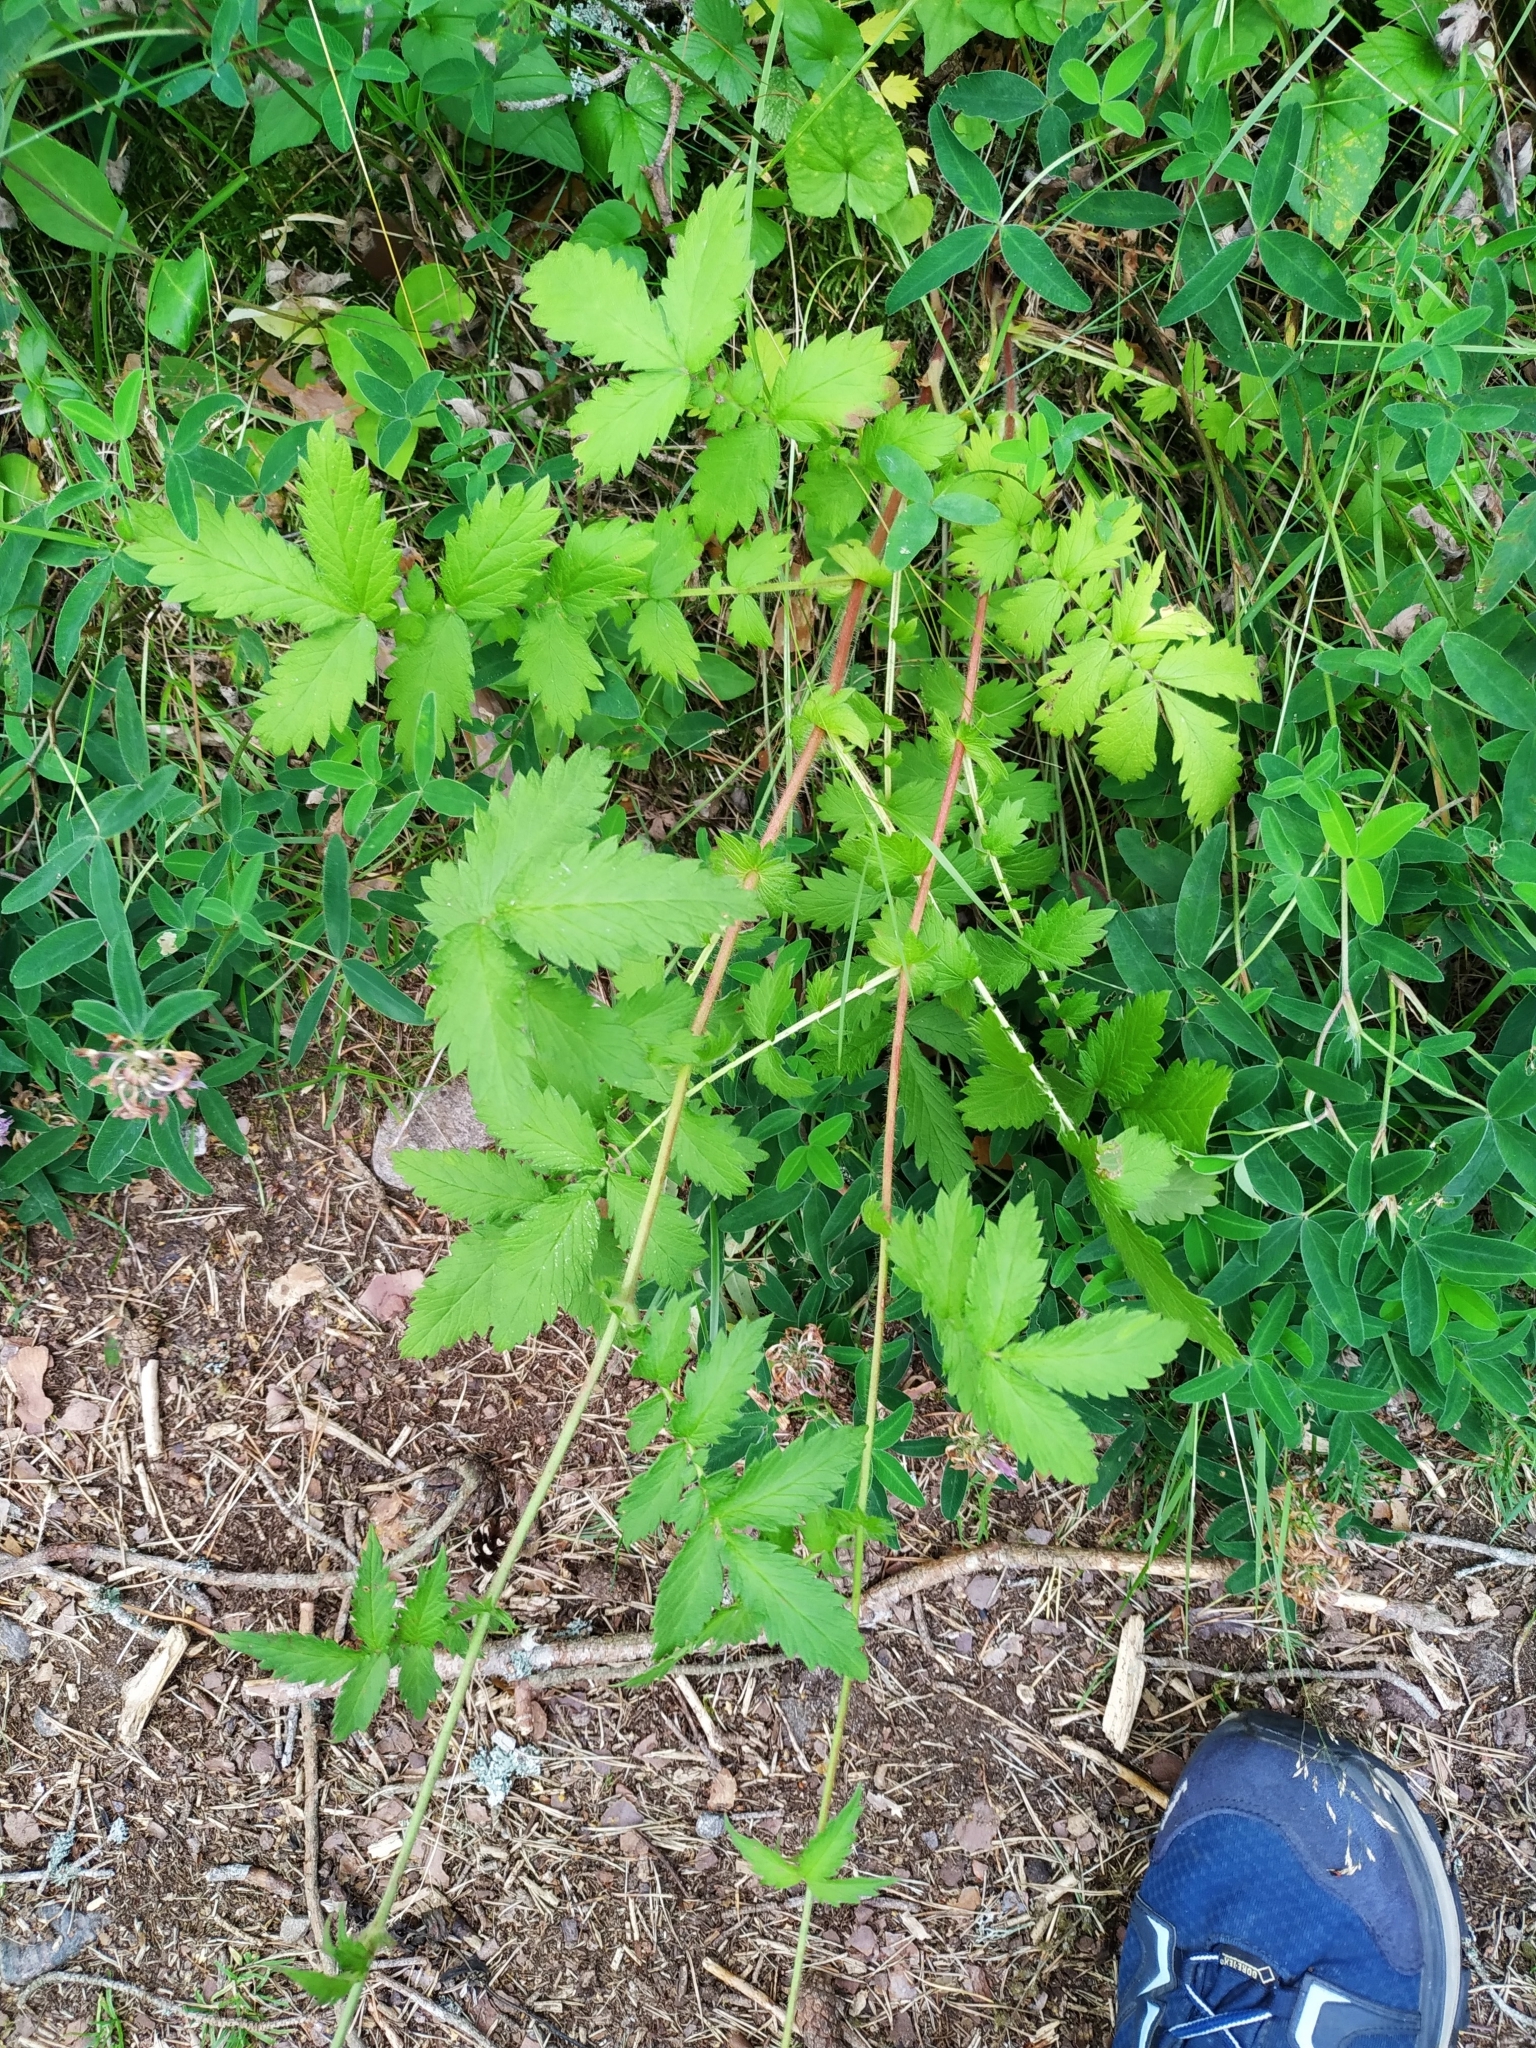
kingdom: Plantae
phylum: Tracheophyta
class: Magnoliopsida
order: Rosales
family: Rosaceae
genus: Agrimonia
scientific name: Agrimonia eupatoria
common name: Agrimony
